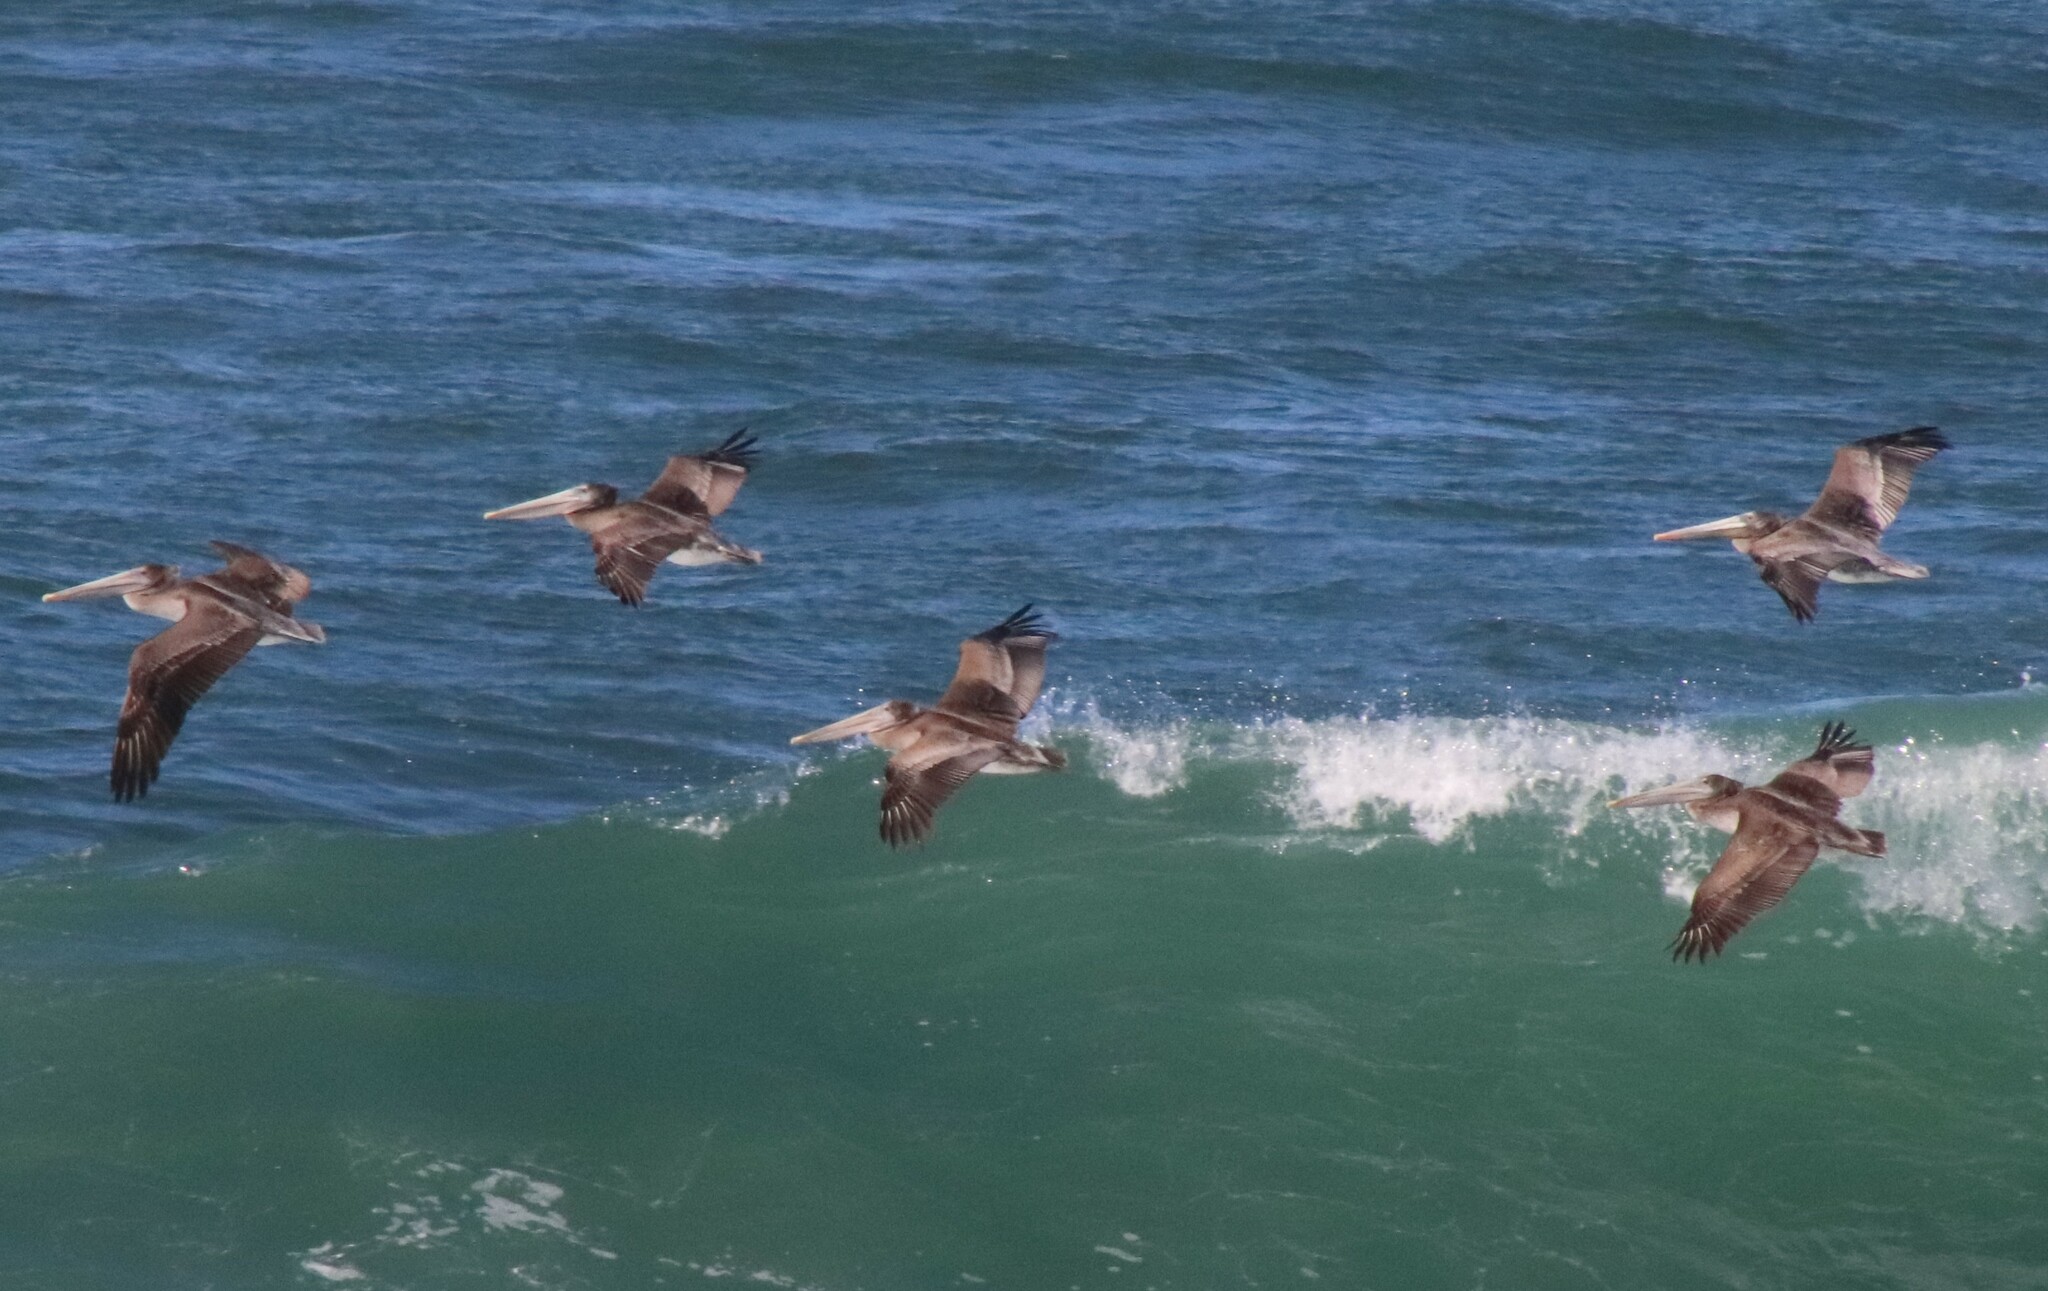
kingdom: Animalia
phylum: Chordata
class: Aves
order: Pelecaniformes
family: Pelecanidae
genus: Pelecanus
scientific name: Pelecanus occidentalis
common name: Brown pelican
